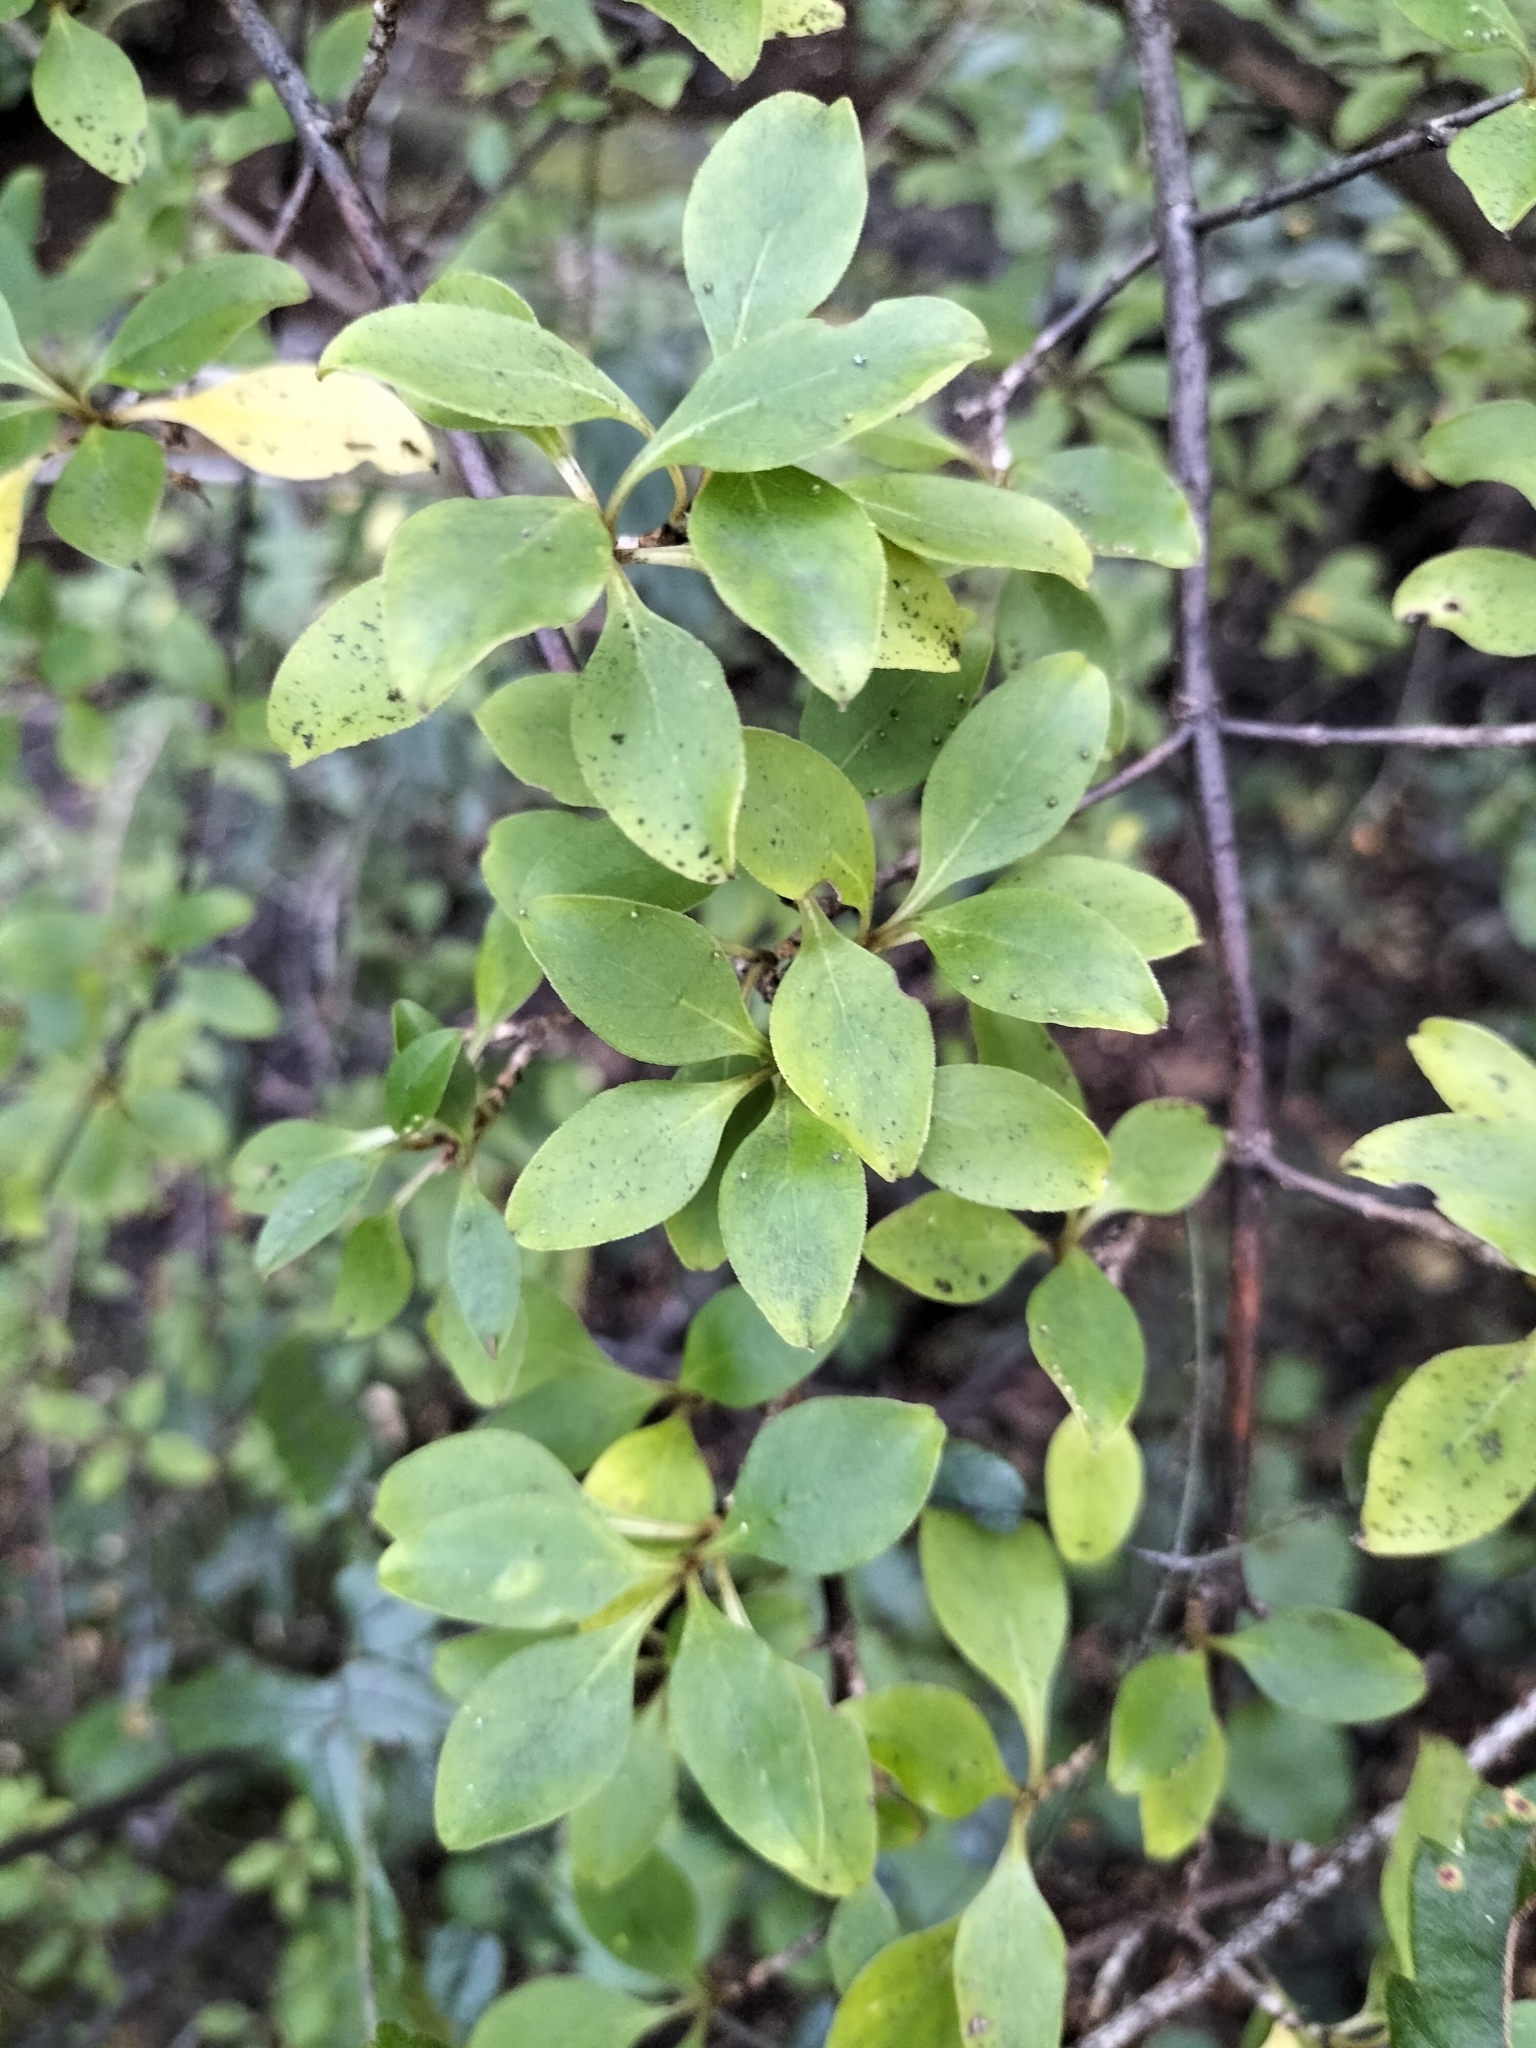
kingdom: Plantae
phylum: Tracheophyta
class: Magnoliopsida
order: Gentianales
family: Rubiaceae
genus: Coprosma
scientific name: Coprosma foetidissima
